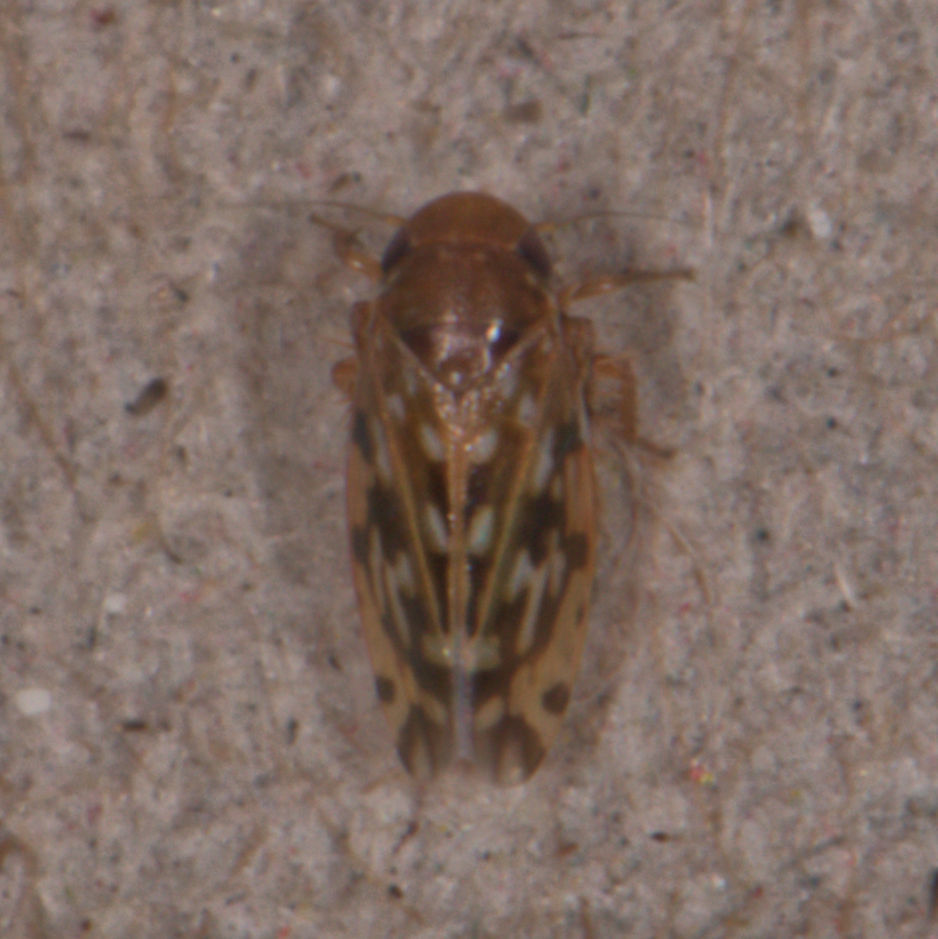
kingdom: Animalia
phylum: Arthropoda
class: Insecta
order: Hemiptera
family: Cicadellidae
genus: Xestocephalus
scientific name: Xestocephalus fulvocapitatus
